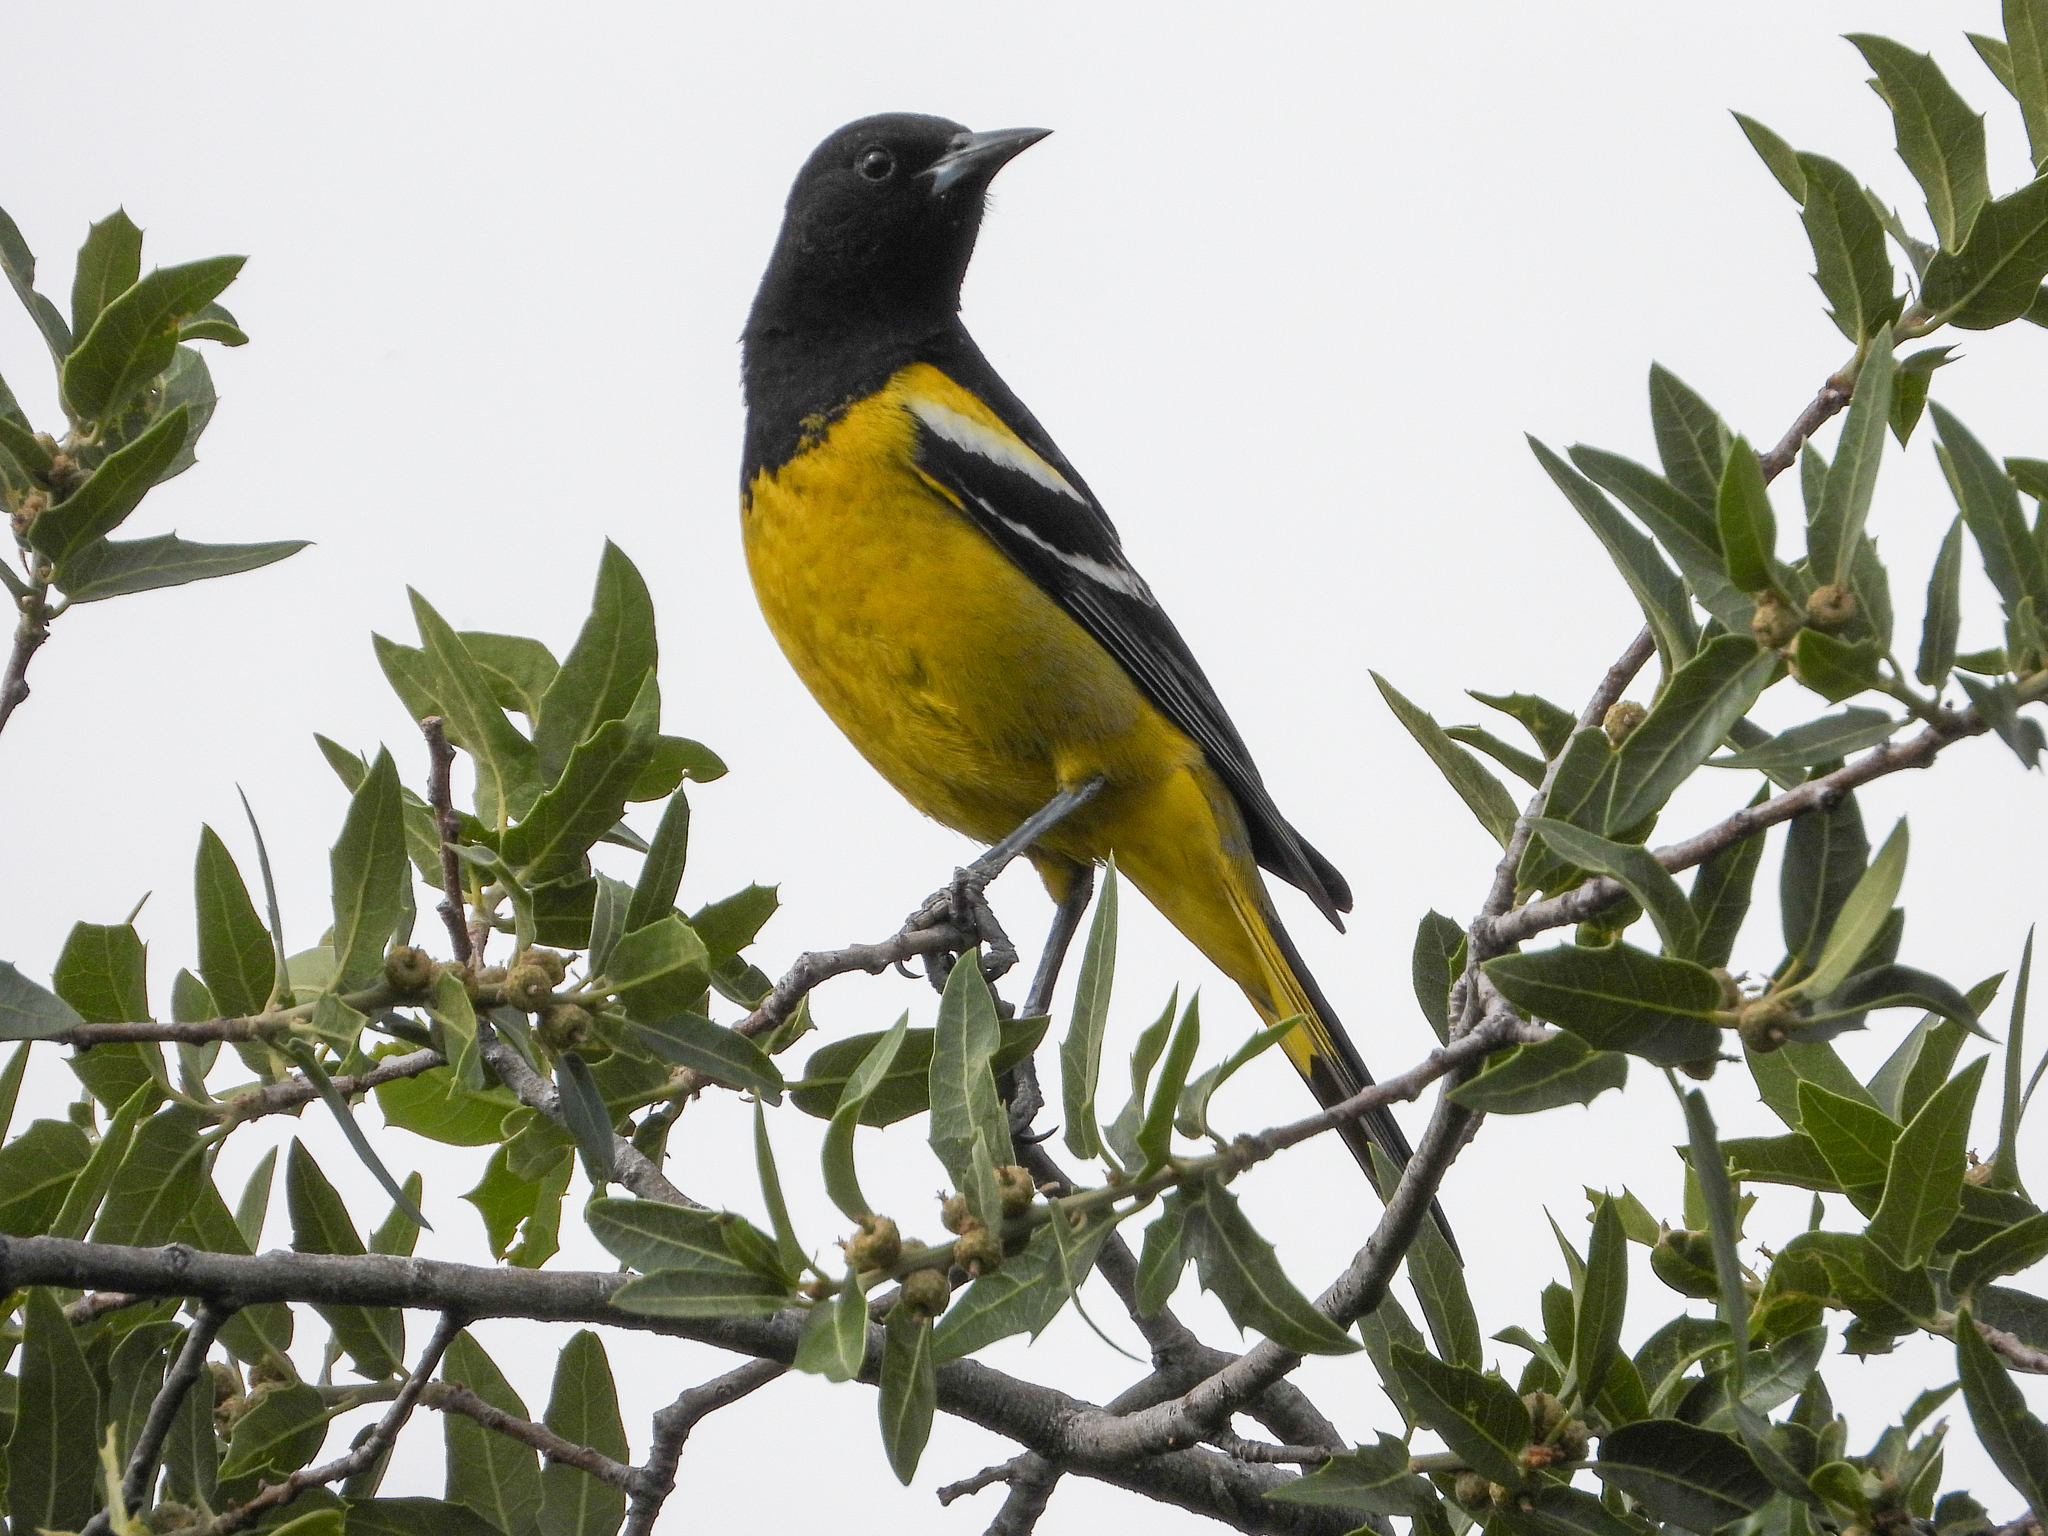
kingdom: Animalia
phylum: Chordata
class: Aves
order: Passeriformes
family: Icteridae
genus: Icterus
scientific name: Icterus parisorum
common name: Scott's oriole
